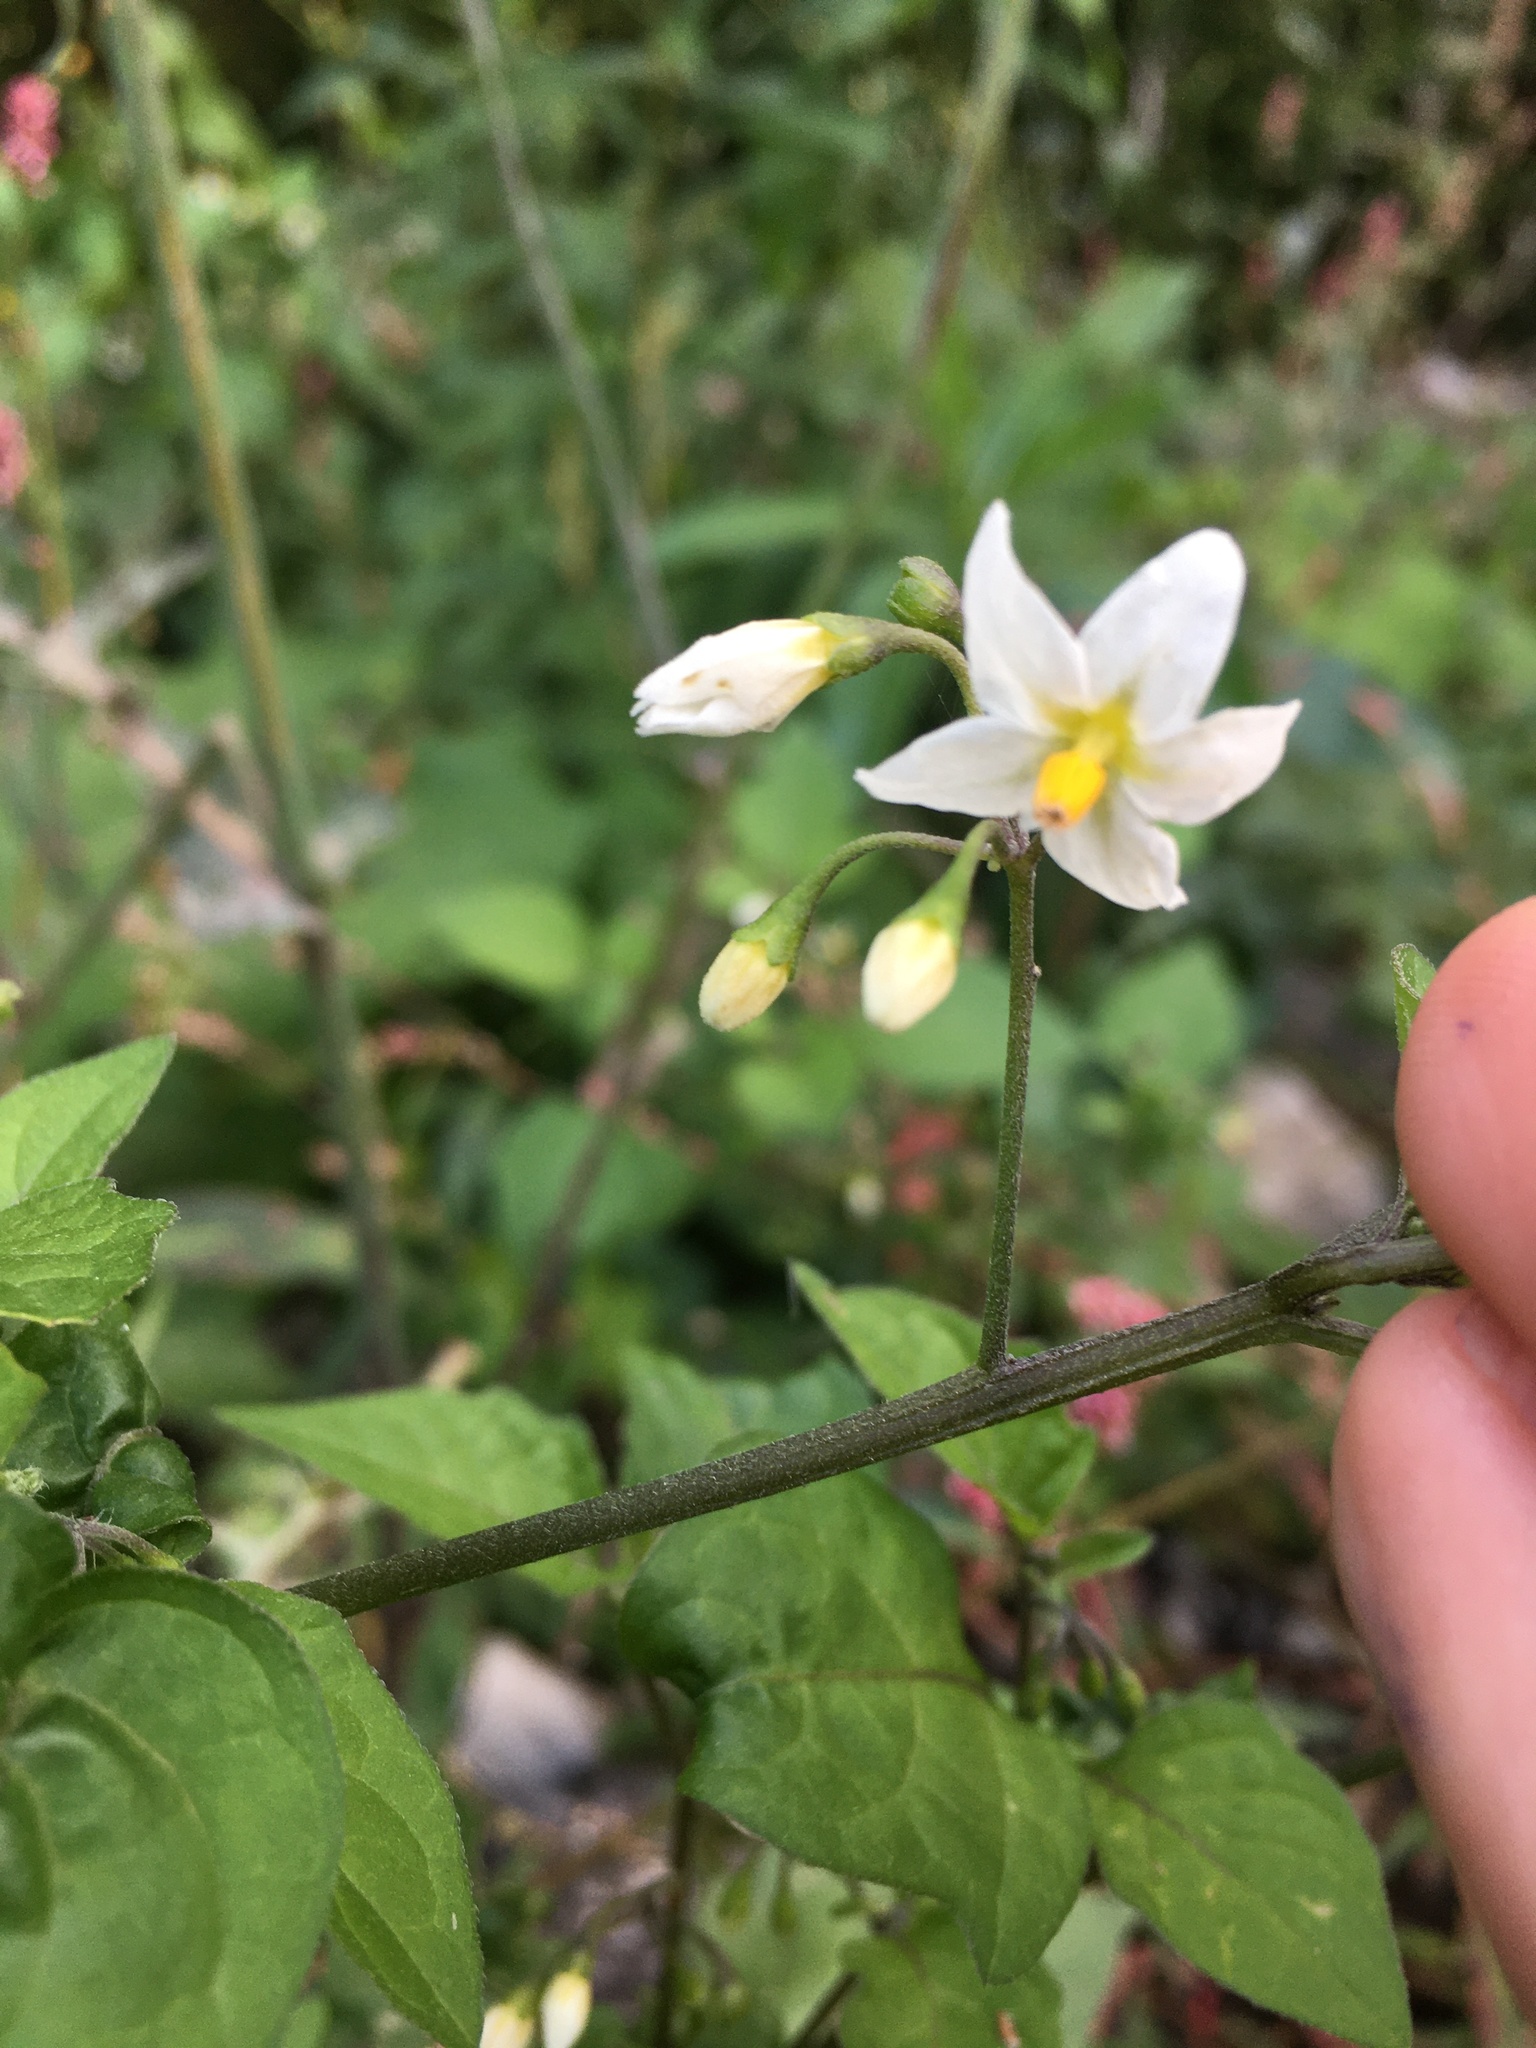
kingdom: Plantae
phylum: Tracheophyta
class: Magnoliopsida
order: Solanales
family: Solanaceae
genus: Solanum
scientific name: Solanum nigrum
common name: Black nightshade
